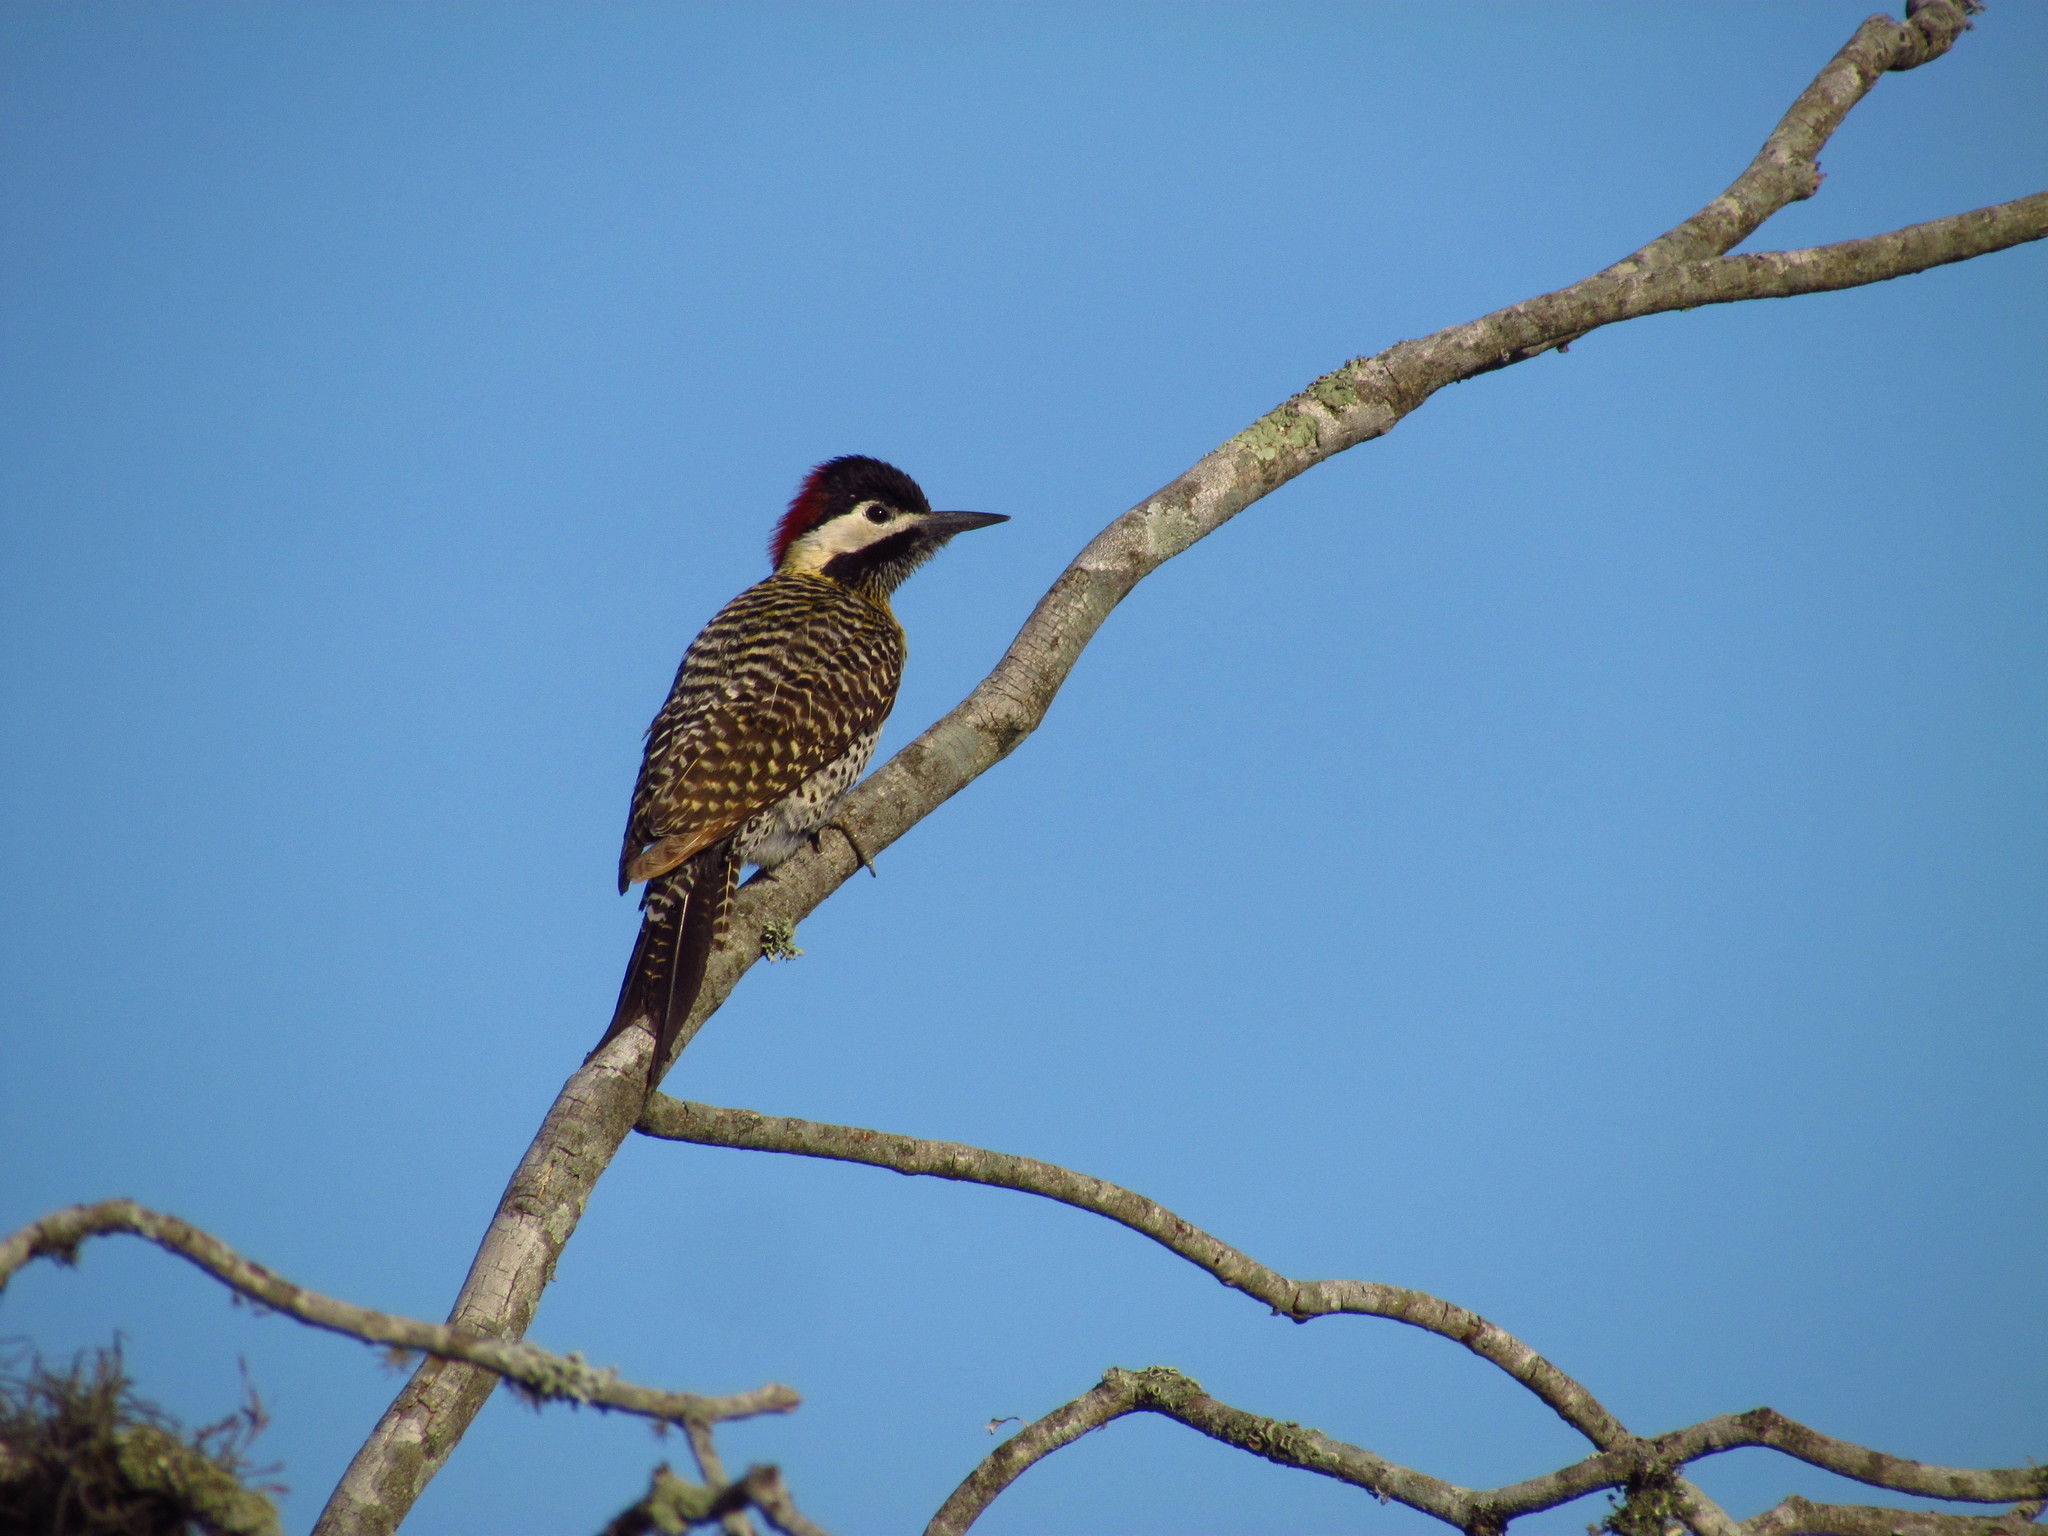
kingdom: Animalia
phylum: Chordata
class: Aves
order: Piciformes
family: Picidae
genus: Colaptes
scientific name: Colaptes melanochloros
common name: Green-barred woodpecker
